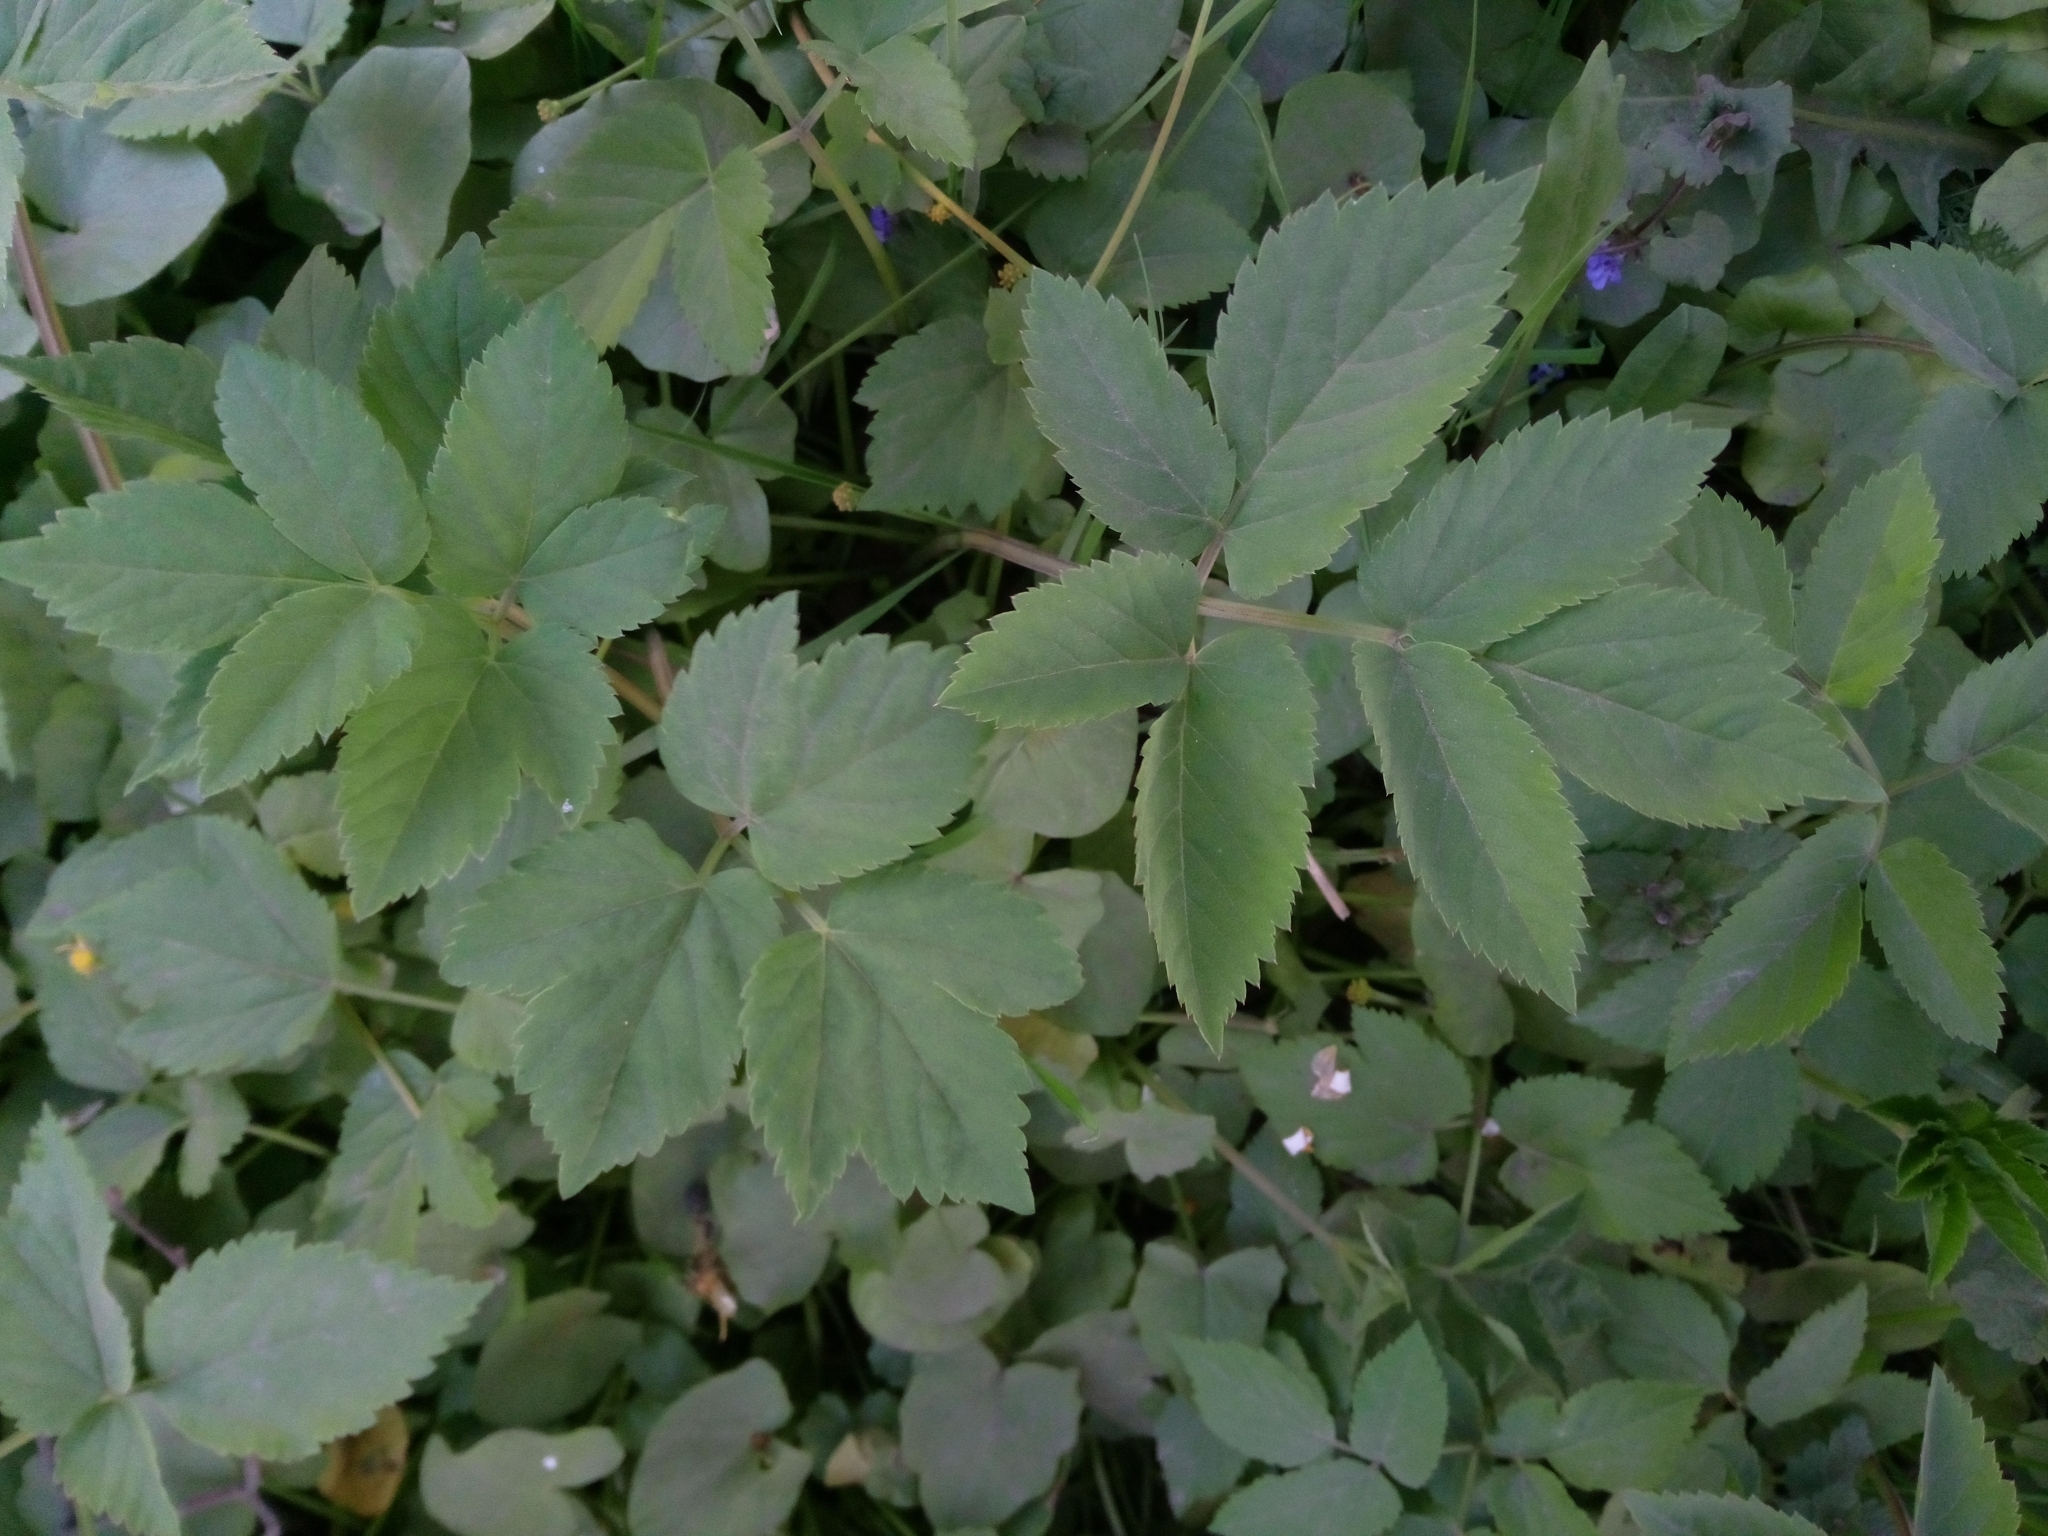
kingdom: Plantae
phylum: Tracheophyta
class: Magnoliopsida
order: Apiales
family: Apiaceae
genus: Aegopodium
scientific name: Aegopodium podagraria
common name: Ground-elder
